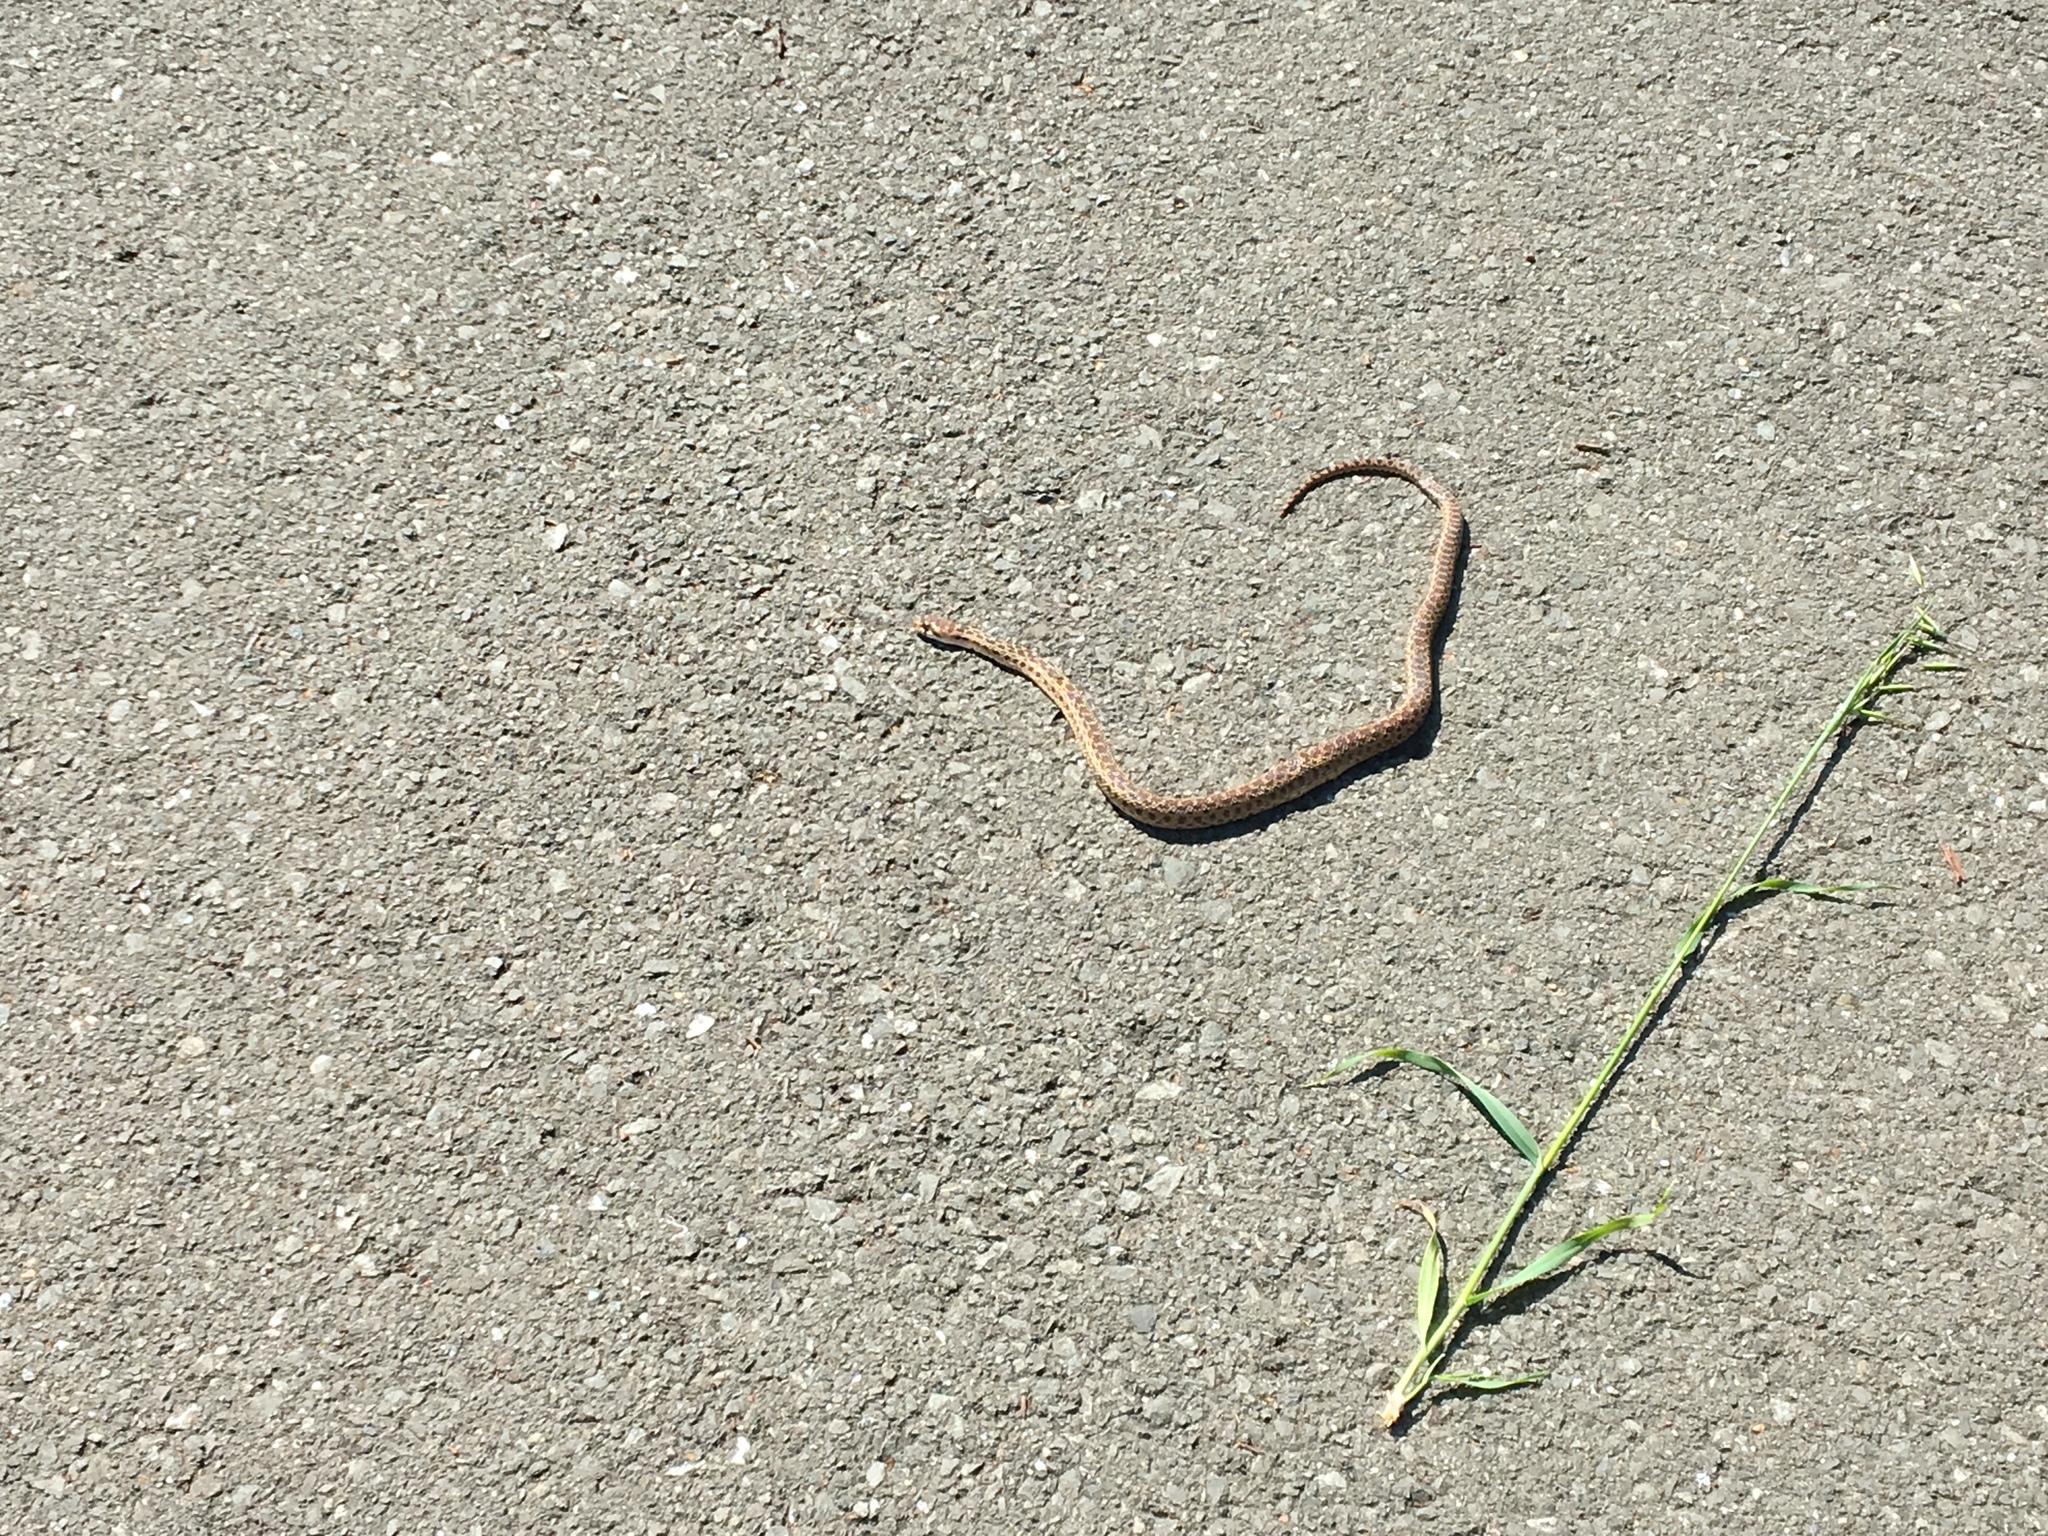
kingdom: Animalia
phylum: Chordata
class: Squamata
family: Colubridae
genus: Pituophis
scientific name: Pituophis catenifer
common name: Gopher snake
